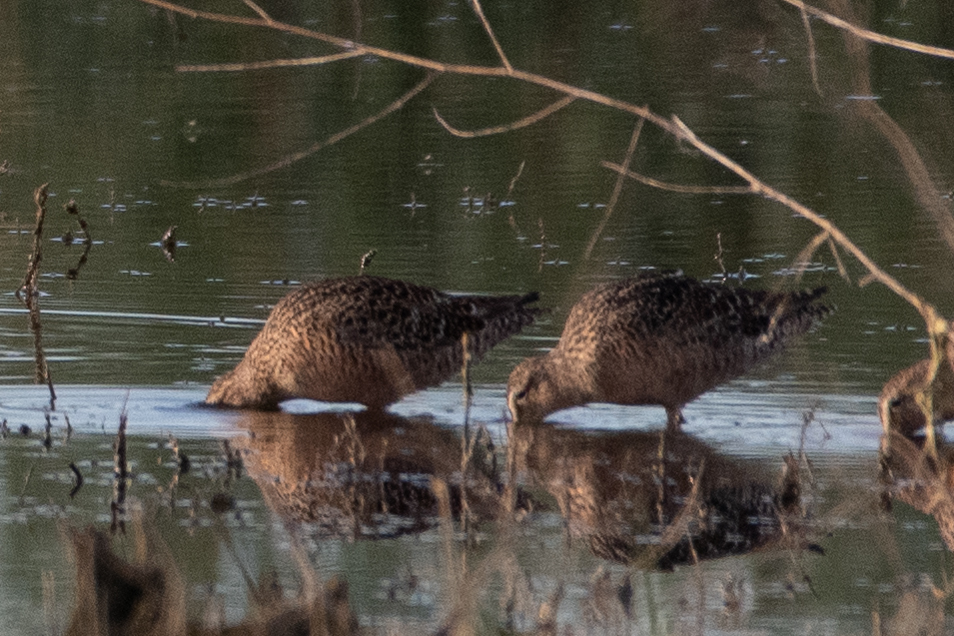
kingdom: Animalia
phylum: Chordata
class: Aves
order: Charadriiformes
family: Scolopacidae
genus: Limnodromus
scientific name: Limnodromus scolopaceus
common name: Long-billed dowitcher
